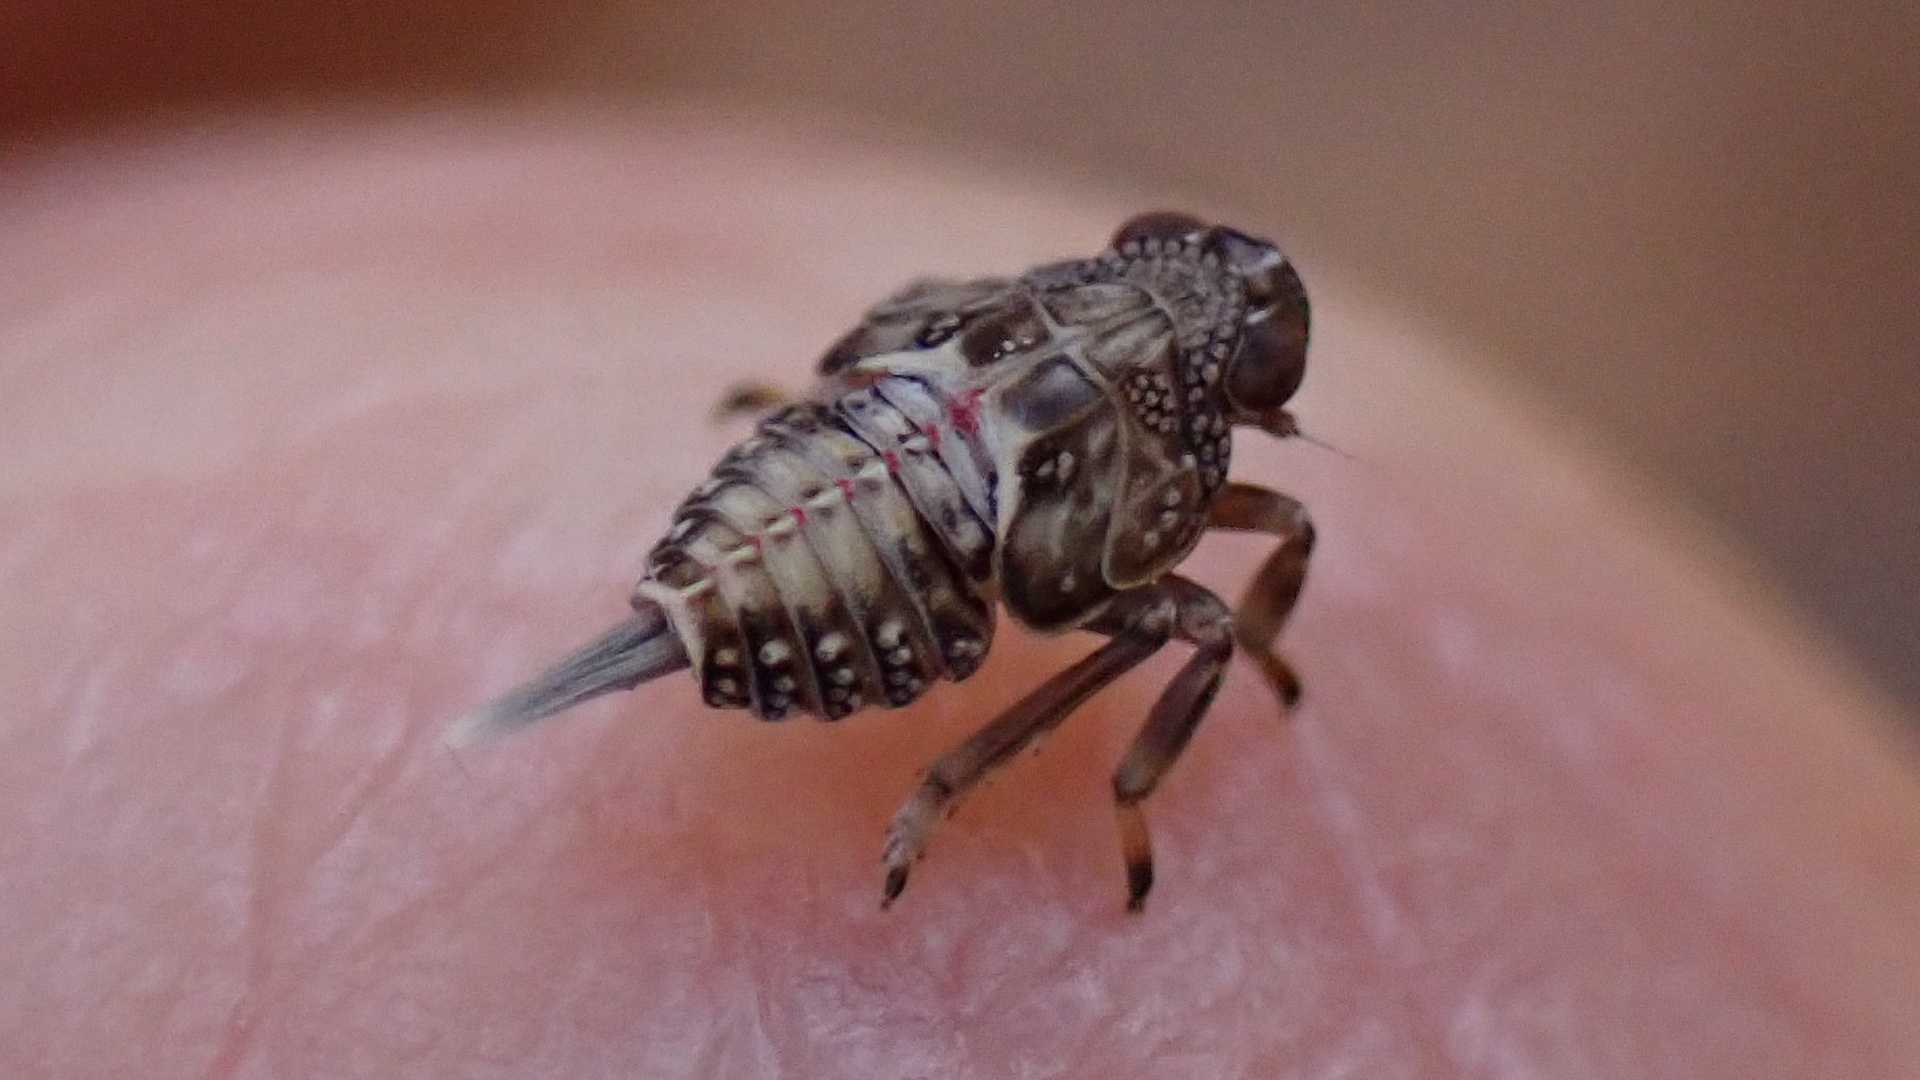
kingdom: Animalia
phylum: Arthropoda
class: Insecta
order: Hemiptera
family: Issidae
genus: Issus
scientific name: Issus
